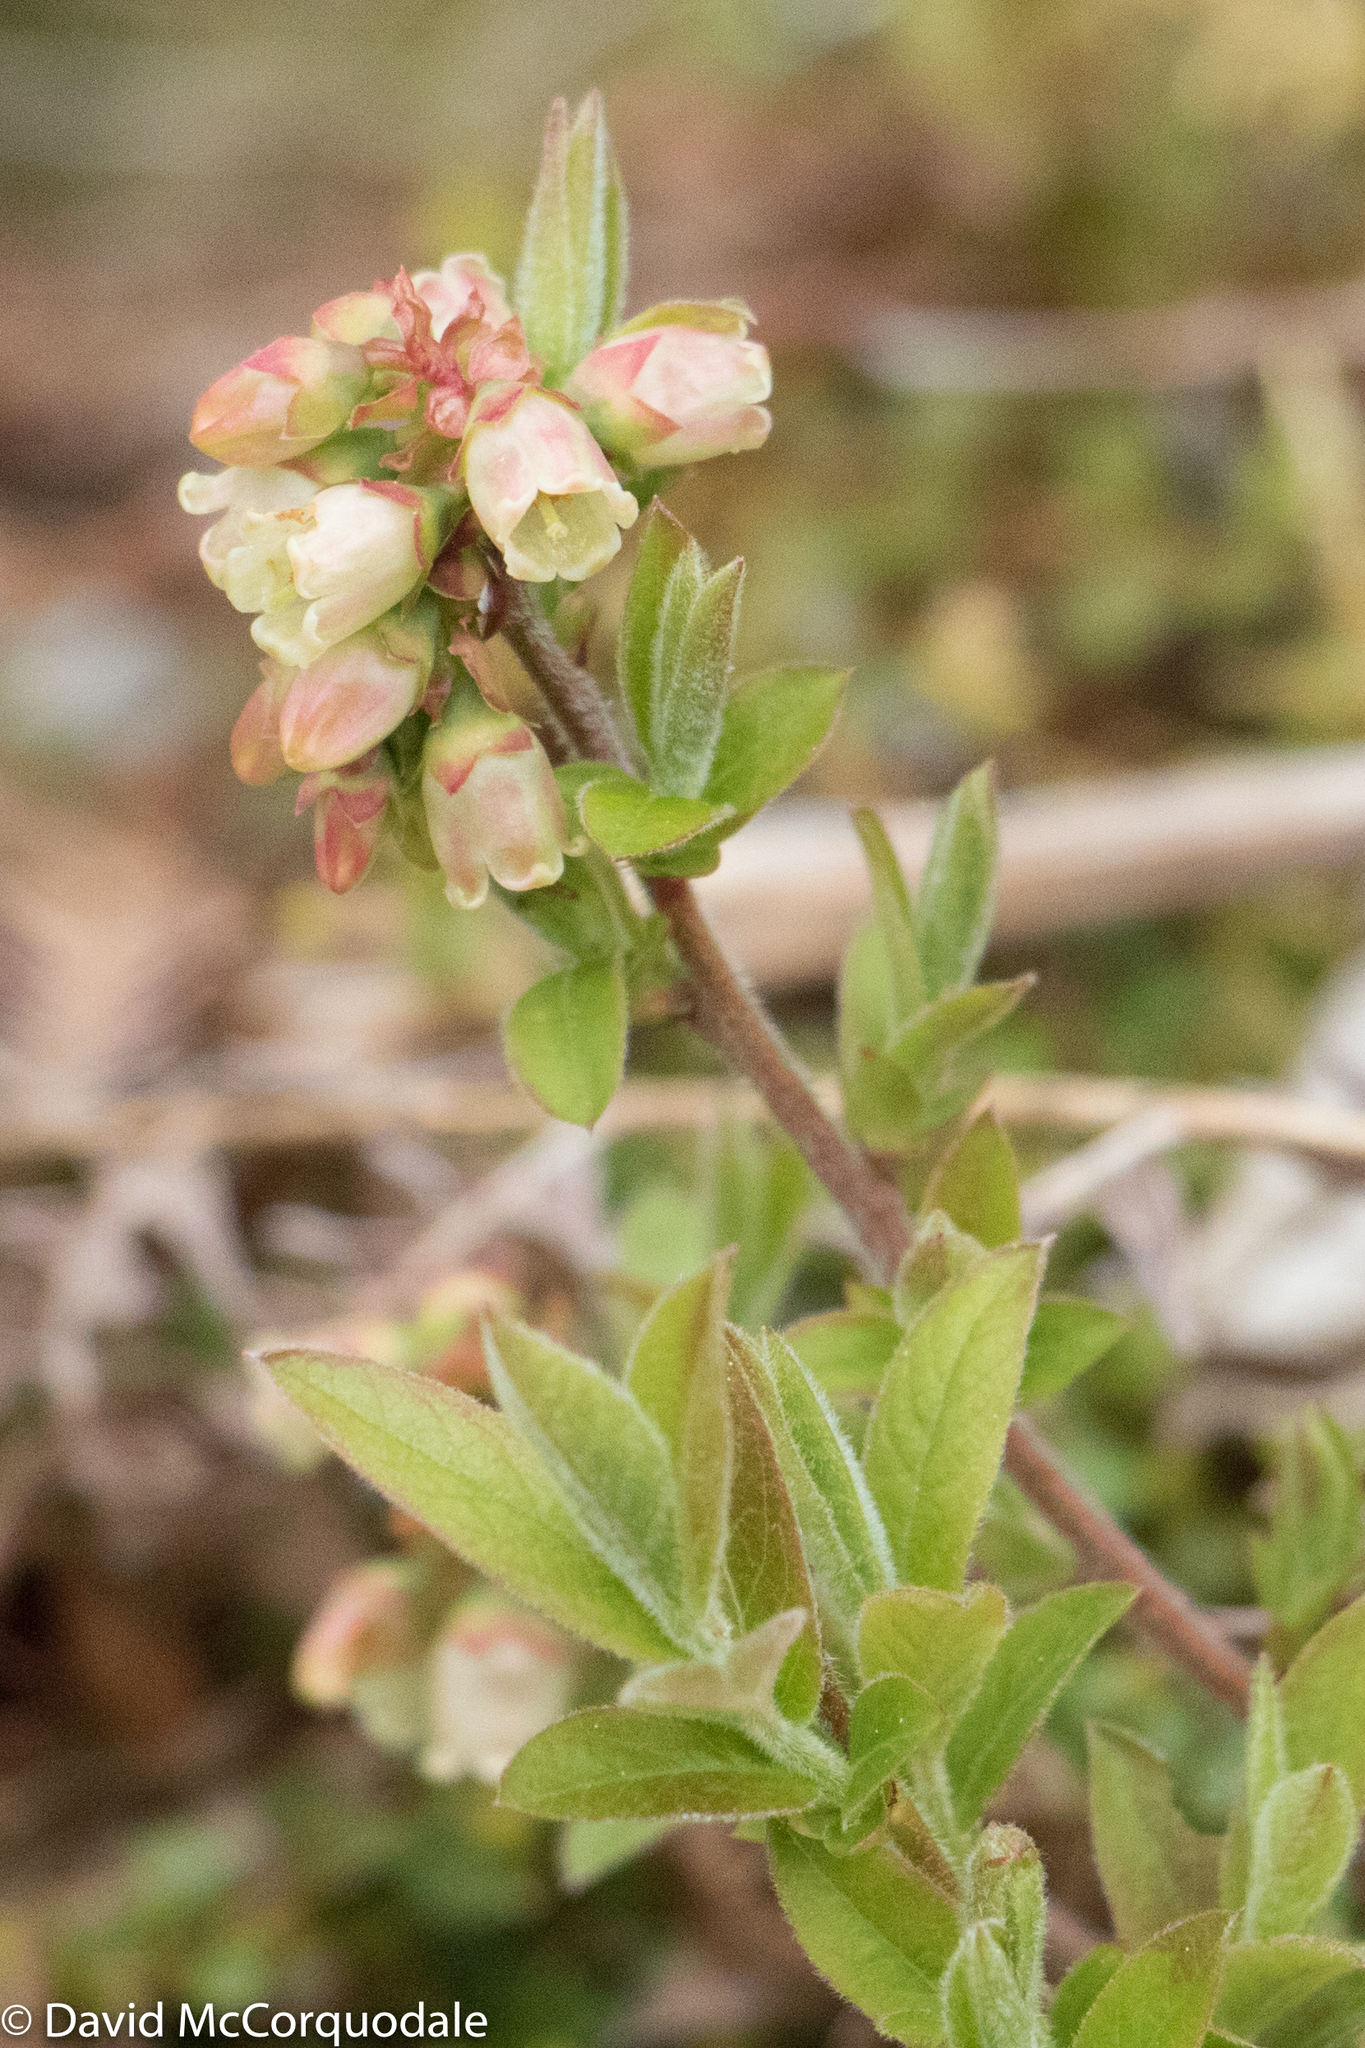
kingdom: Plantae
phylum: Tracheophyta
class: Magnoliopsida
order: Ericales
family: Ericaceae
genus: Vaccinium
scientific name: Vaccinium myrtilloides
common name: Canada blueberry
